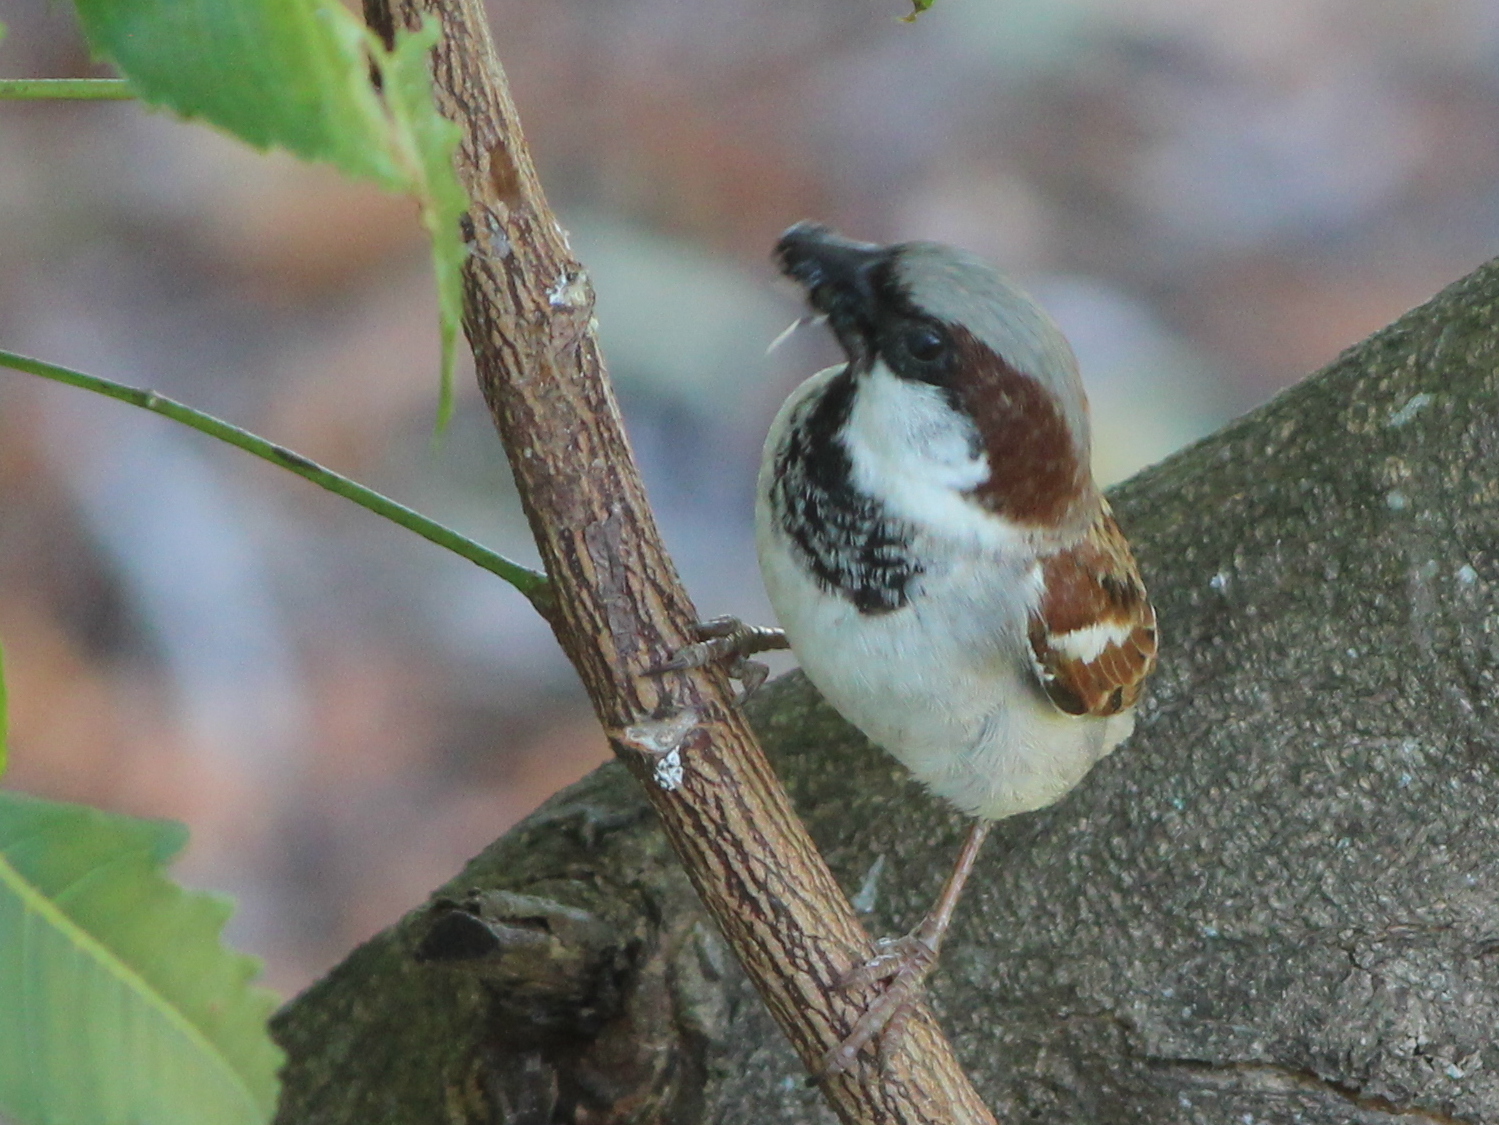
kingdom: Animalia
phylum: Chordata
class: Aves
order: Passeriformes
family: Passeridae
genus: Passer
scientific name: Passer domesticus
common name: House sparrow
